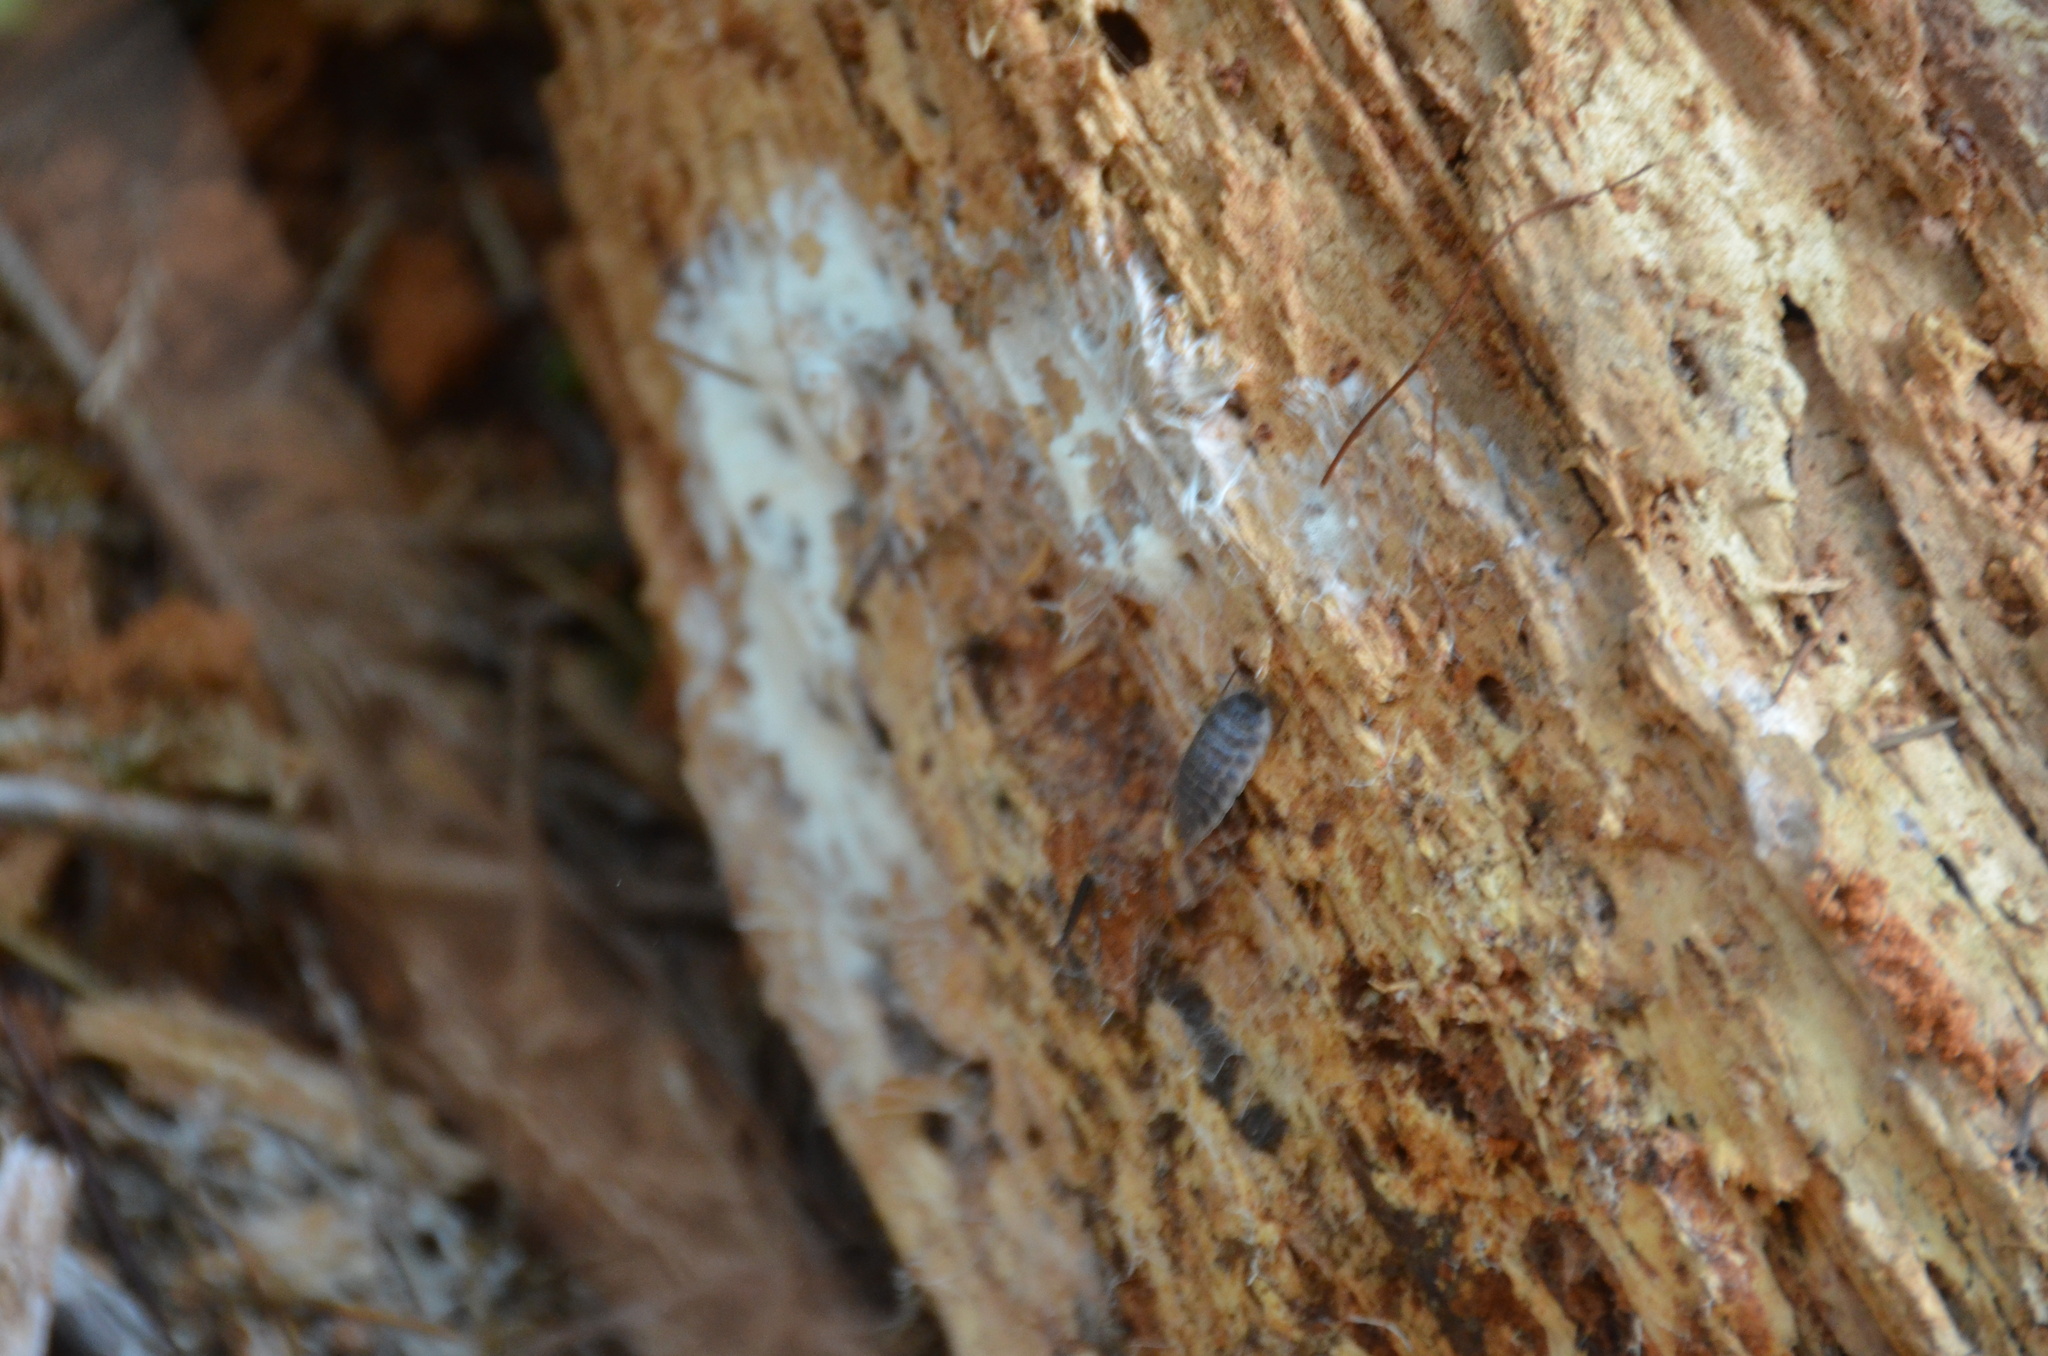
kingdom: Animalia
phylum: Arthropoda
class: Malacostraca
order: Isopoda
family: Oniscidae
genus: Oniscus
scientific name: Oniscus asellus
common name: Common shiny woodlouse
